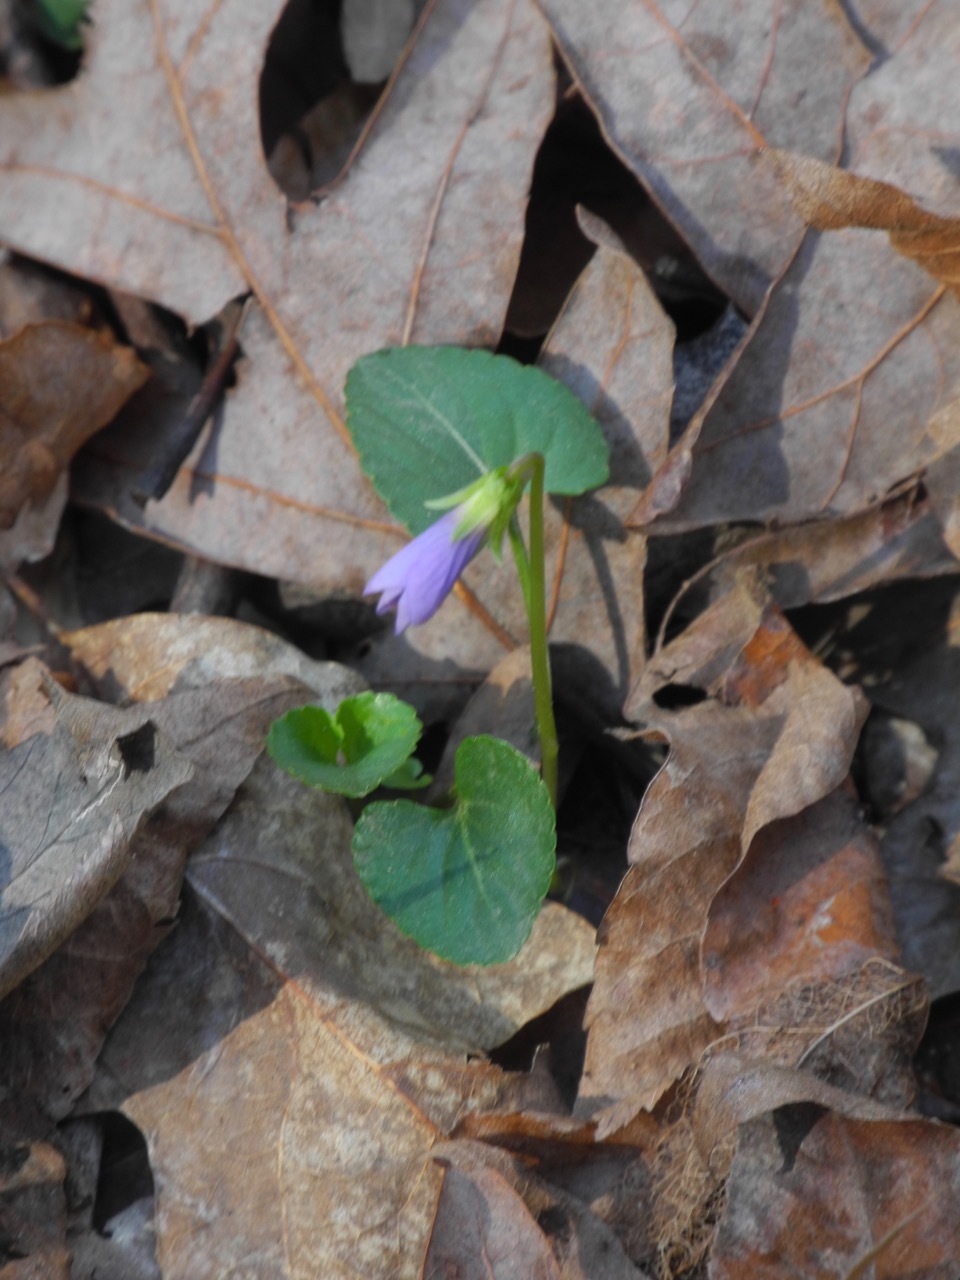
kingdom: Plantae
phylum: Tracheophyta
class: Magnoliopsida
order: Malpighiales
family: Violaceae
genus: Viola
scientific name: Viola sororia
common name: Dooryard violet
